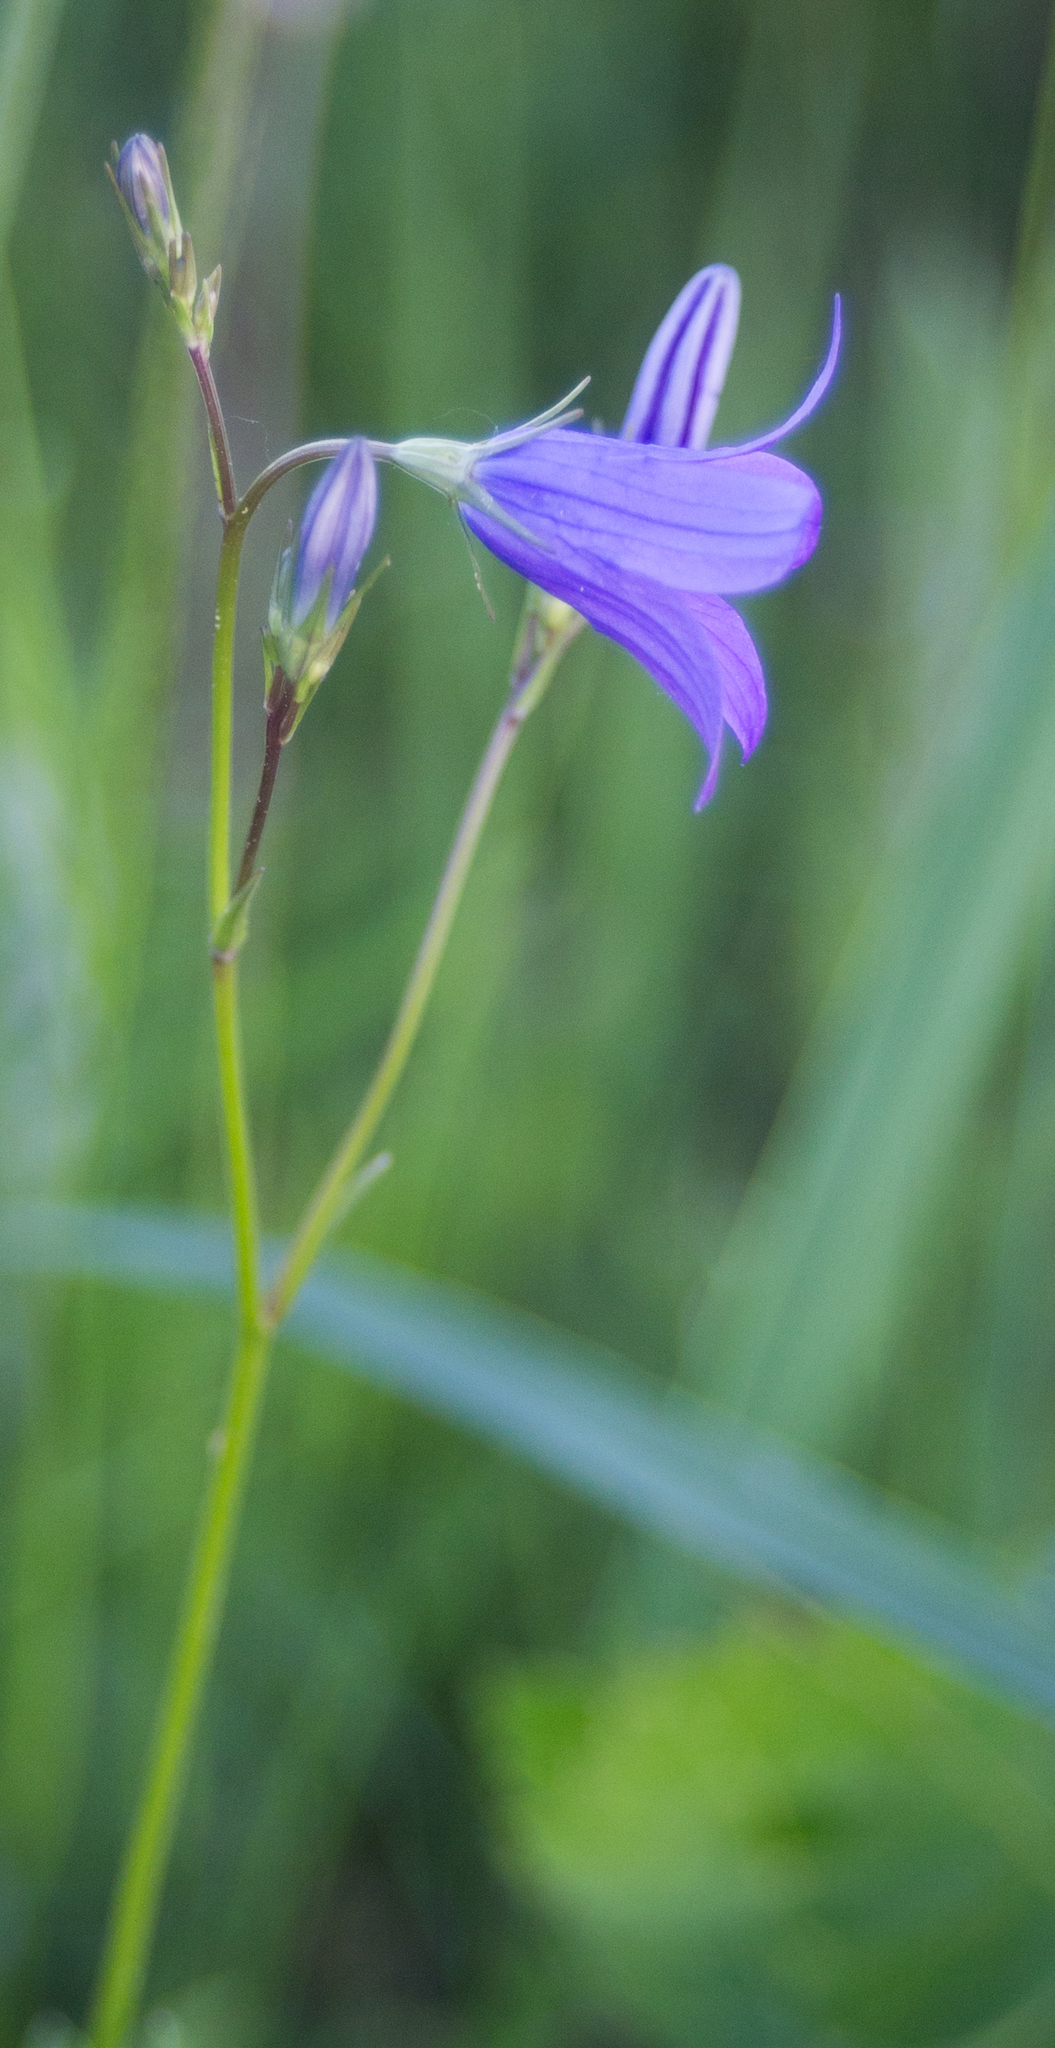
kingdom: Plantae
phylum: Tracheophyta
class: Magnoliopsida
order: Asterales
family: Campanulaceae
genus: Campanula
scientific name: Campanula patula
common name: Spreading bellflower
